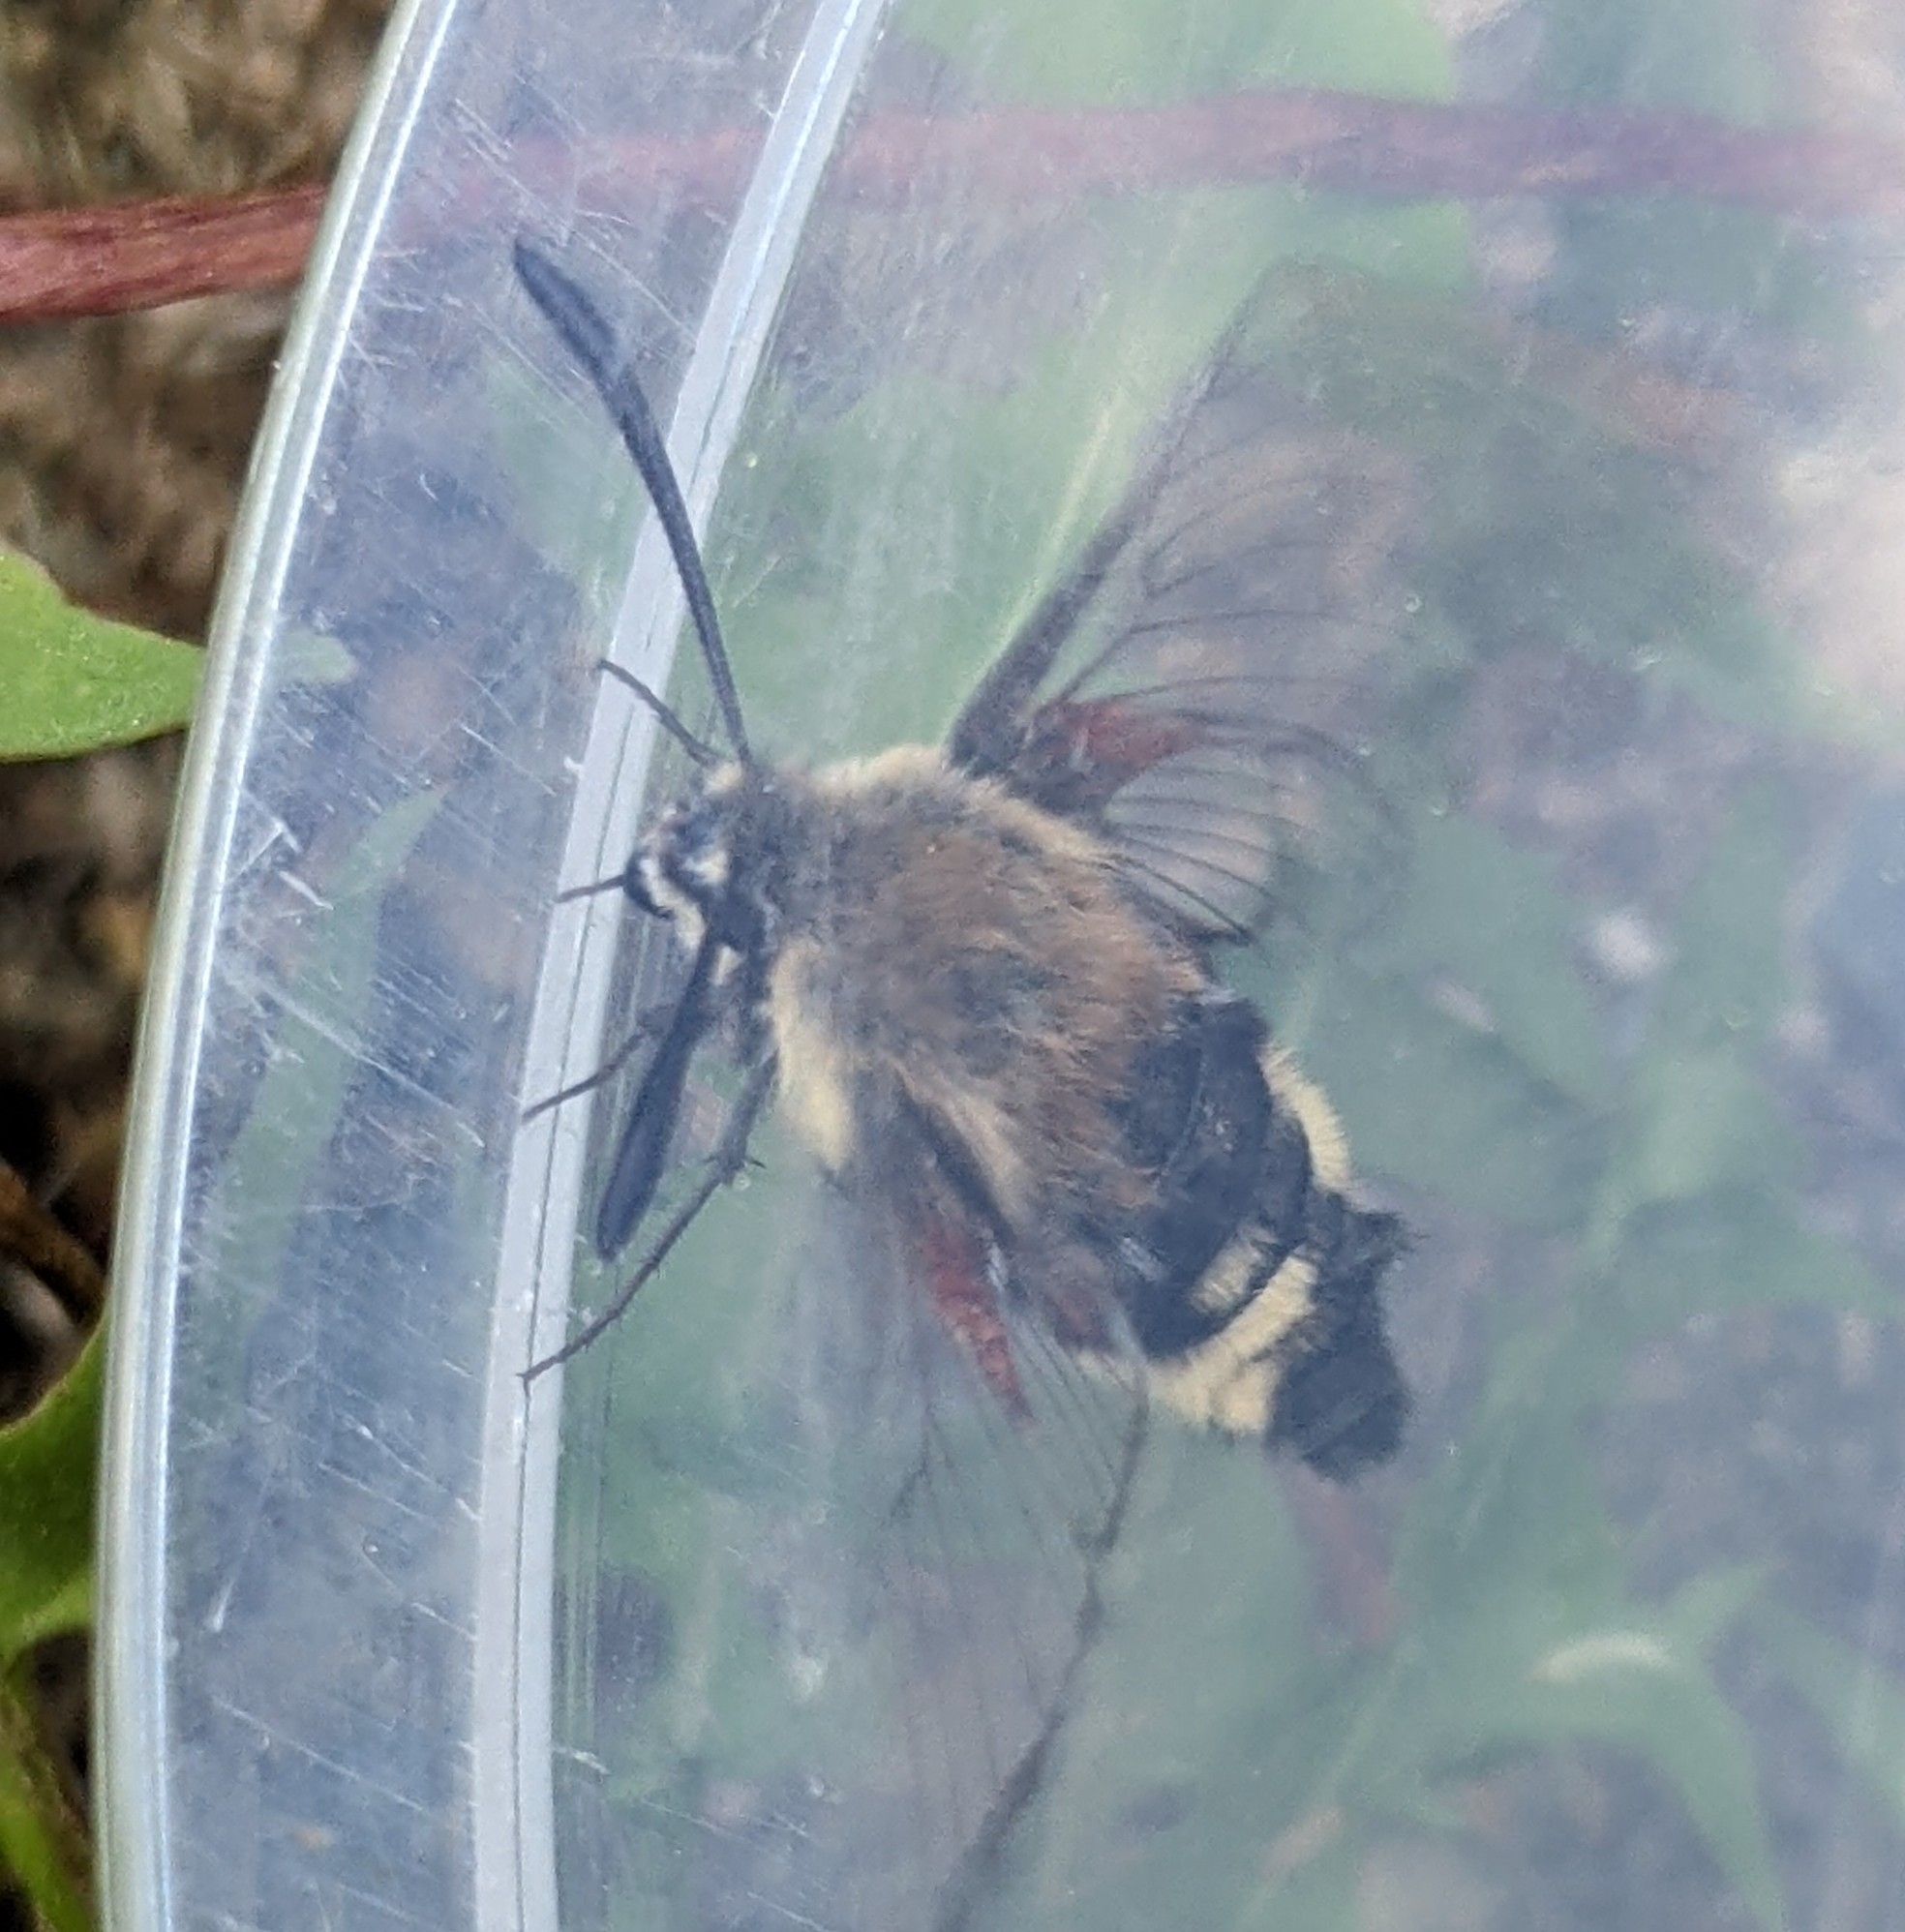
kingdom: Animalia
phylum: Arthropoda
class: Insecta
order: Lepidoptera
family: Sphingidae
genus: Hemaris
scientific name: Hemaris thetis
